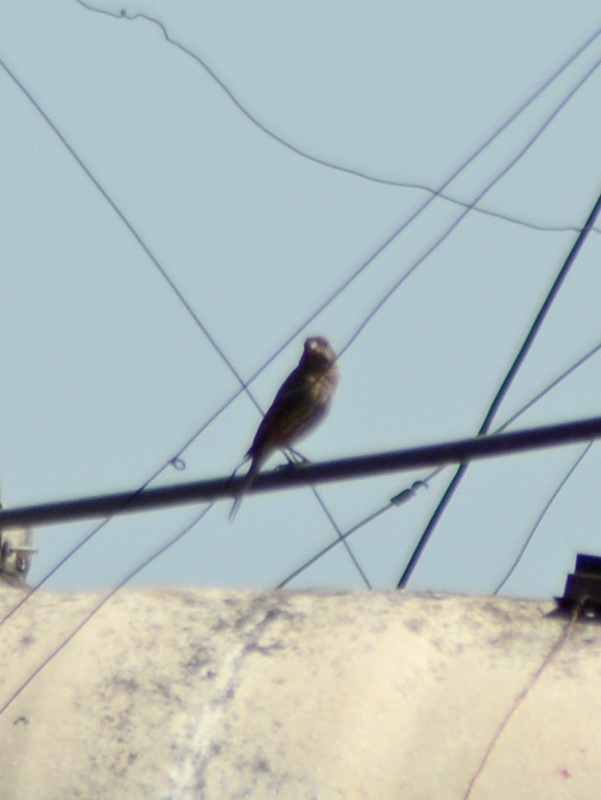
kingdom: Animalia
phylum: Chordata
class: Aves
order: Passeriformes
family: Fringillidae
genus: Haemorhous
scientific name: Haemorhous mexicanus
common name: House finch
